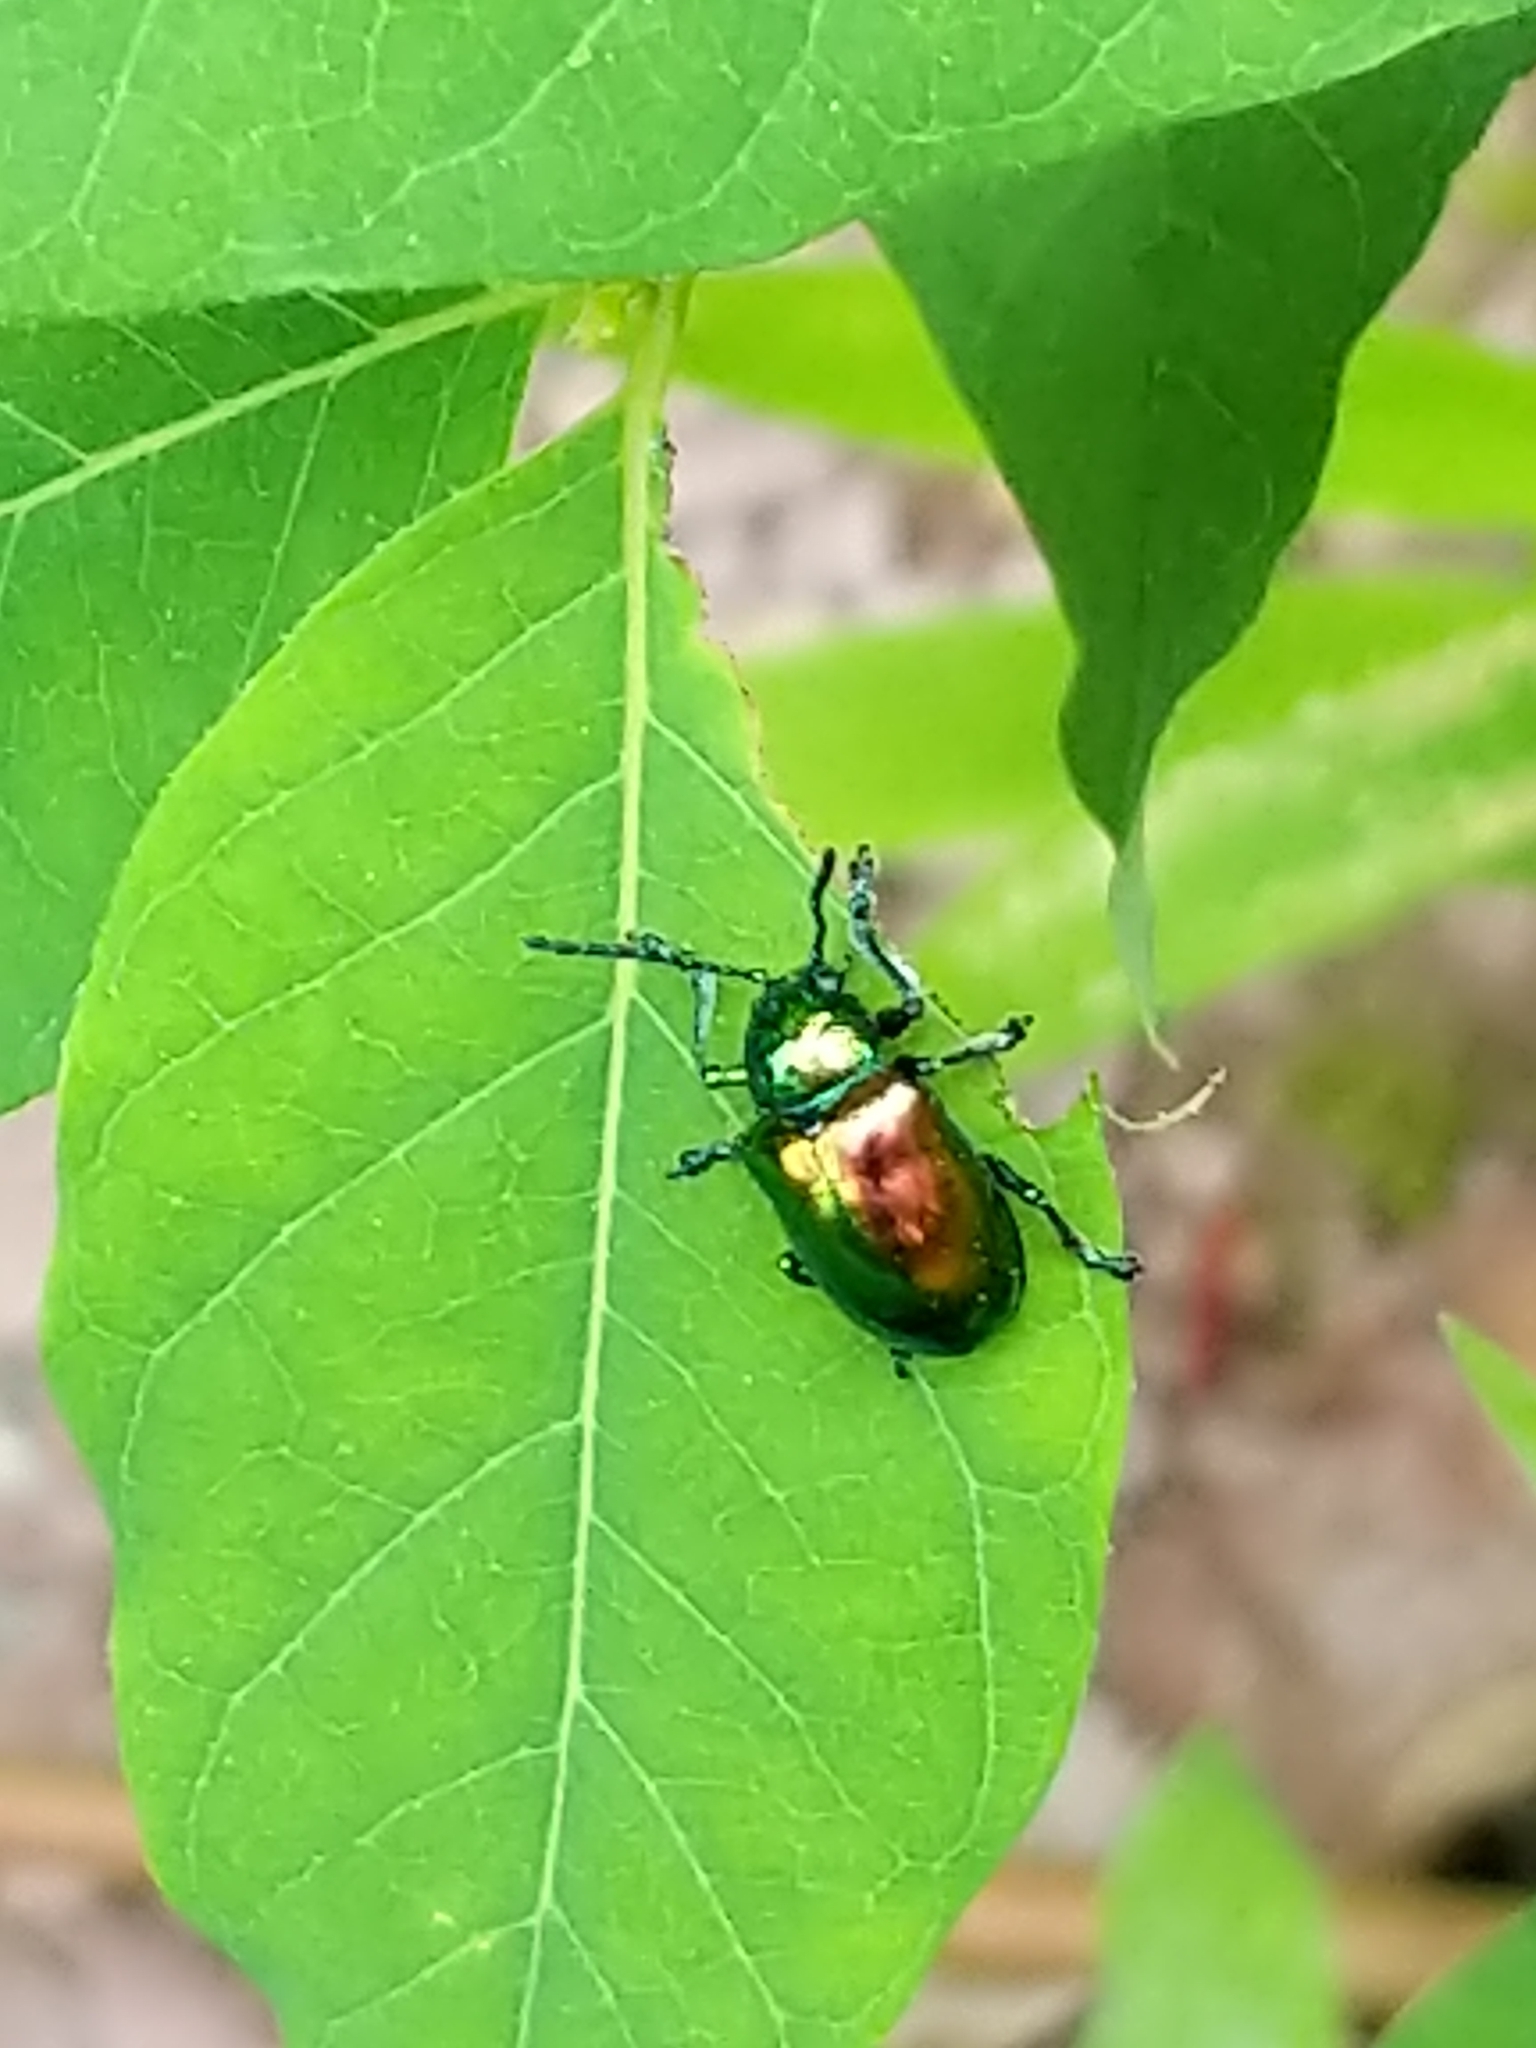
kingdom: Animalia
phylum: Arthropoda
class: Insecta
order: Coleoptera
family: Chrysomelidae
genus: Chrysochus
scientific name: Chrysochus auratus
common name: Dogbane leaf beetle
